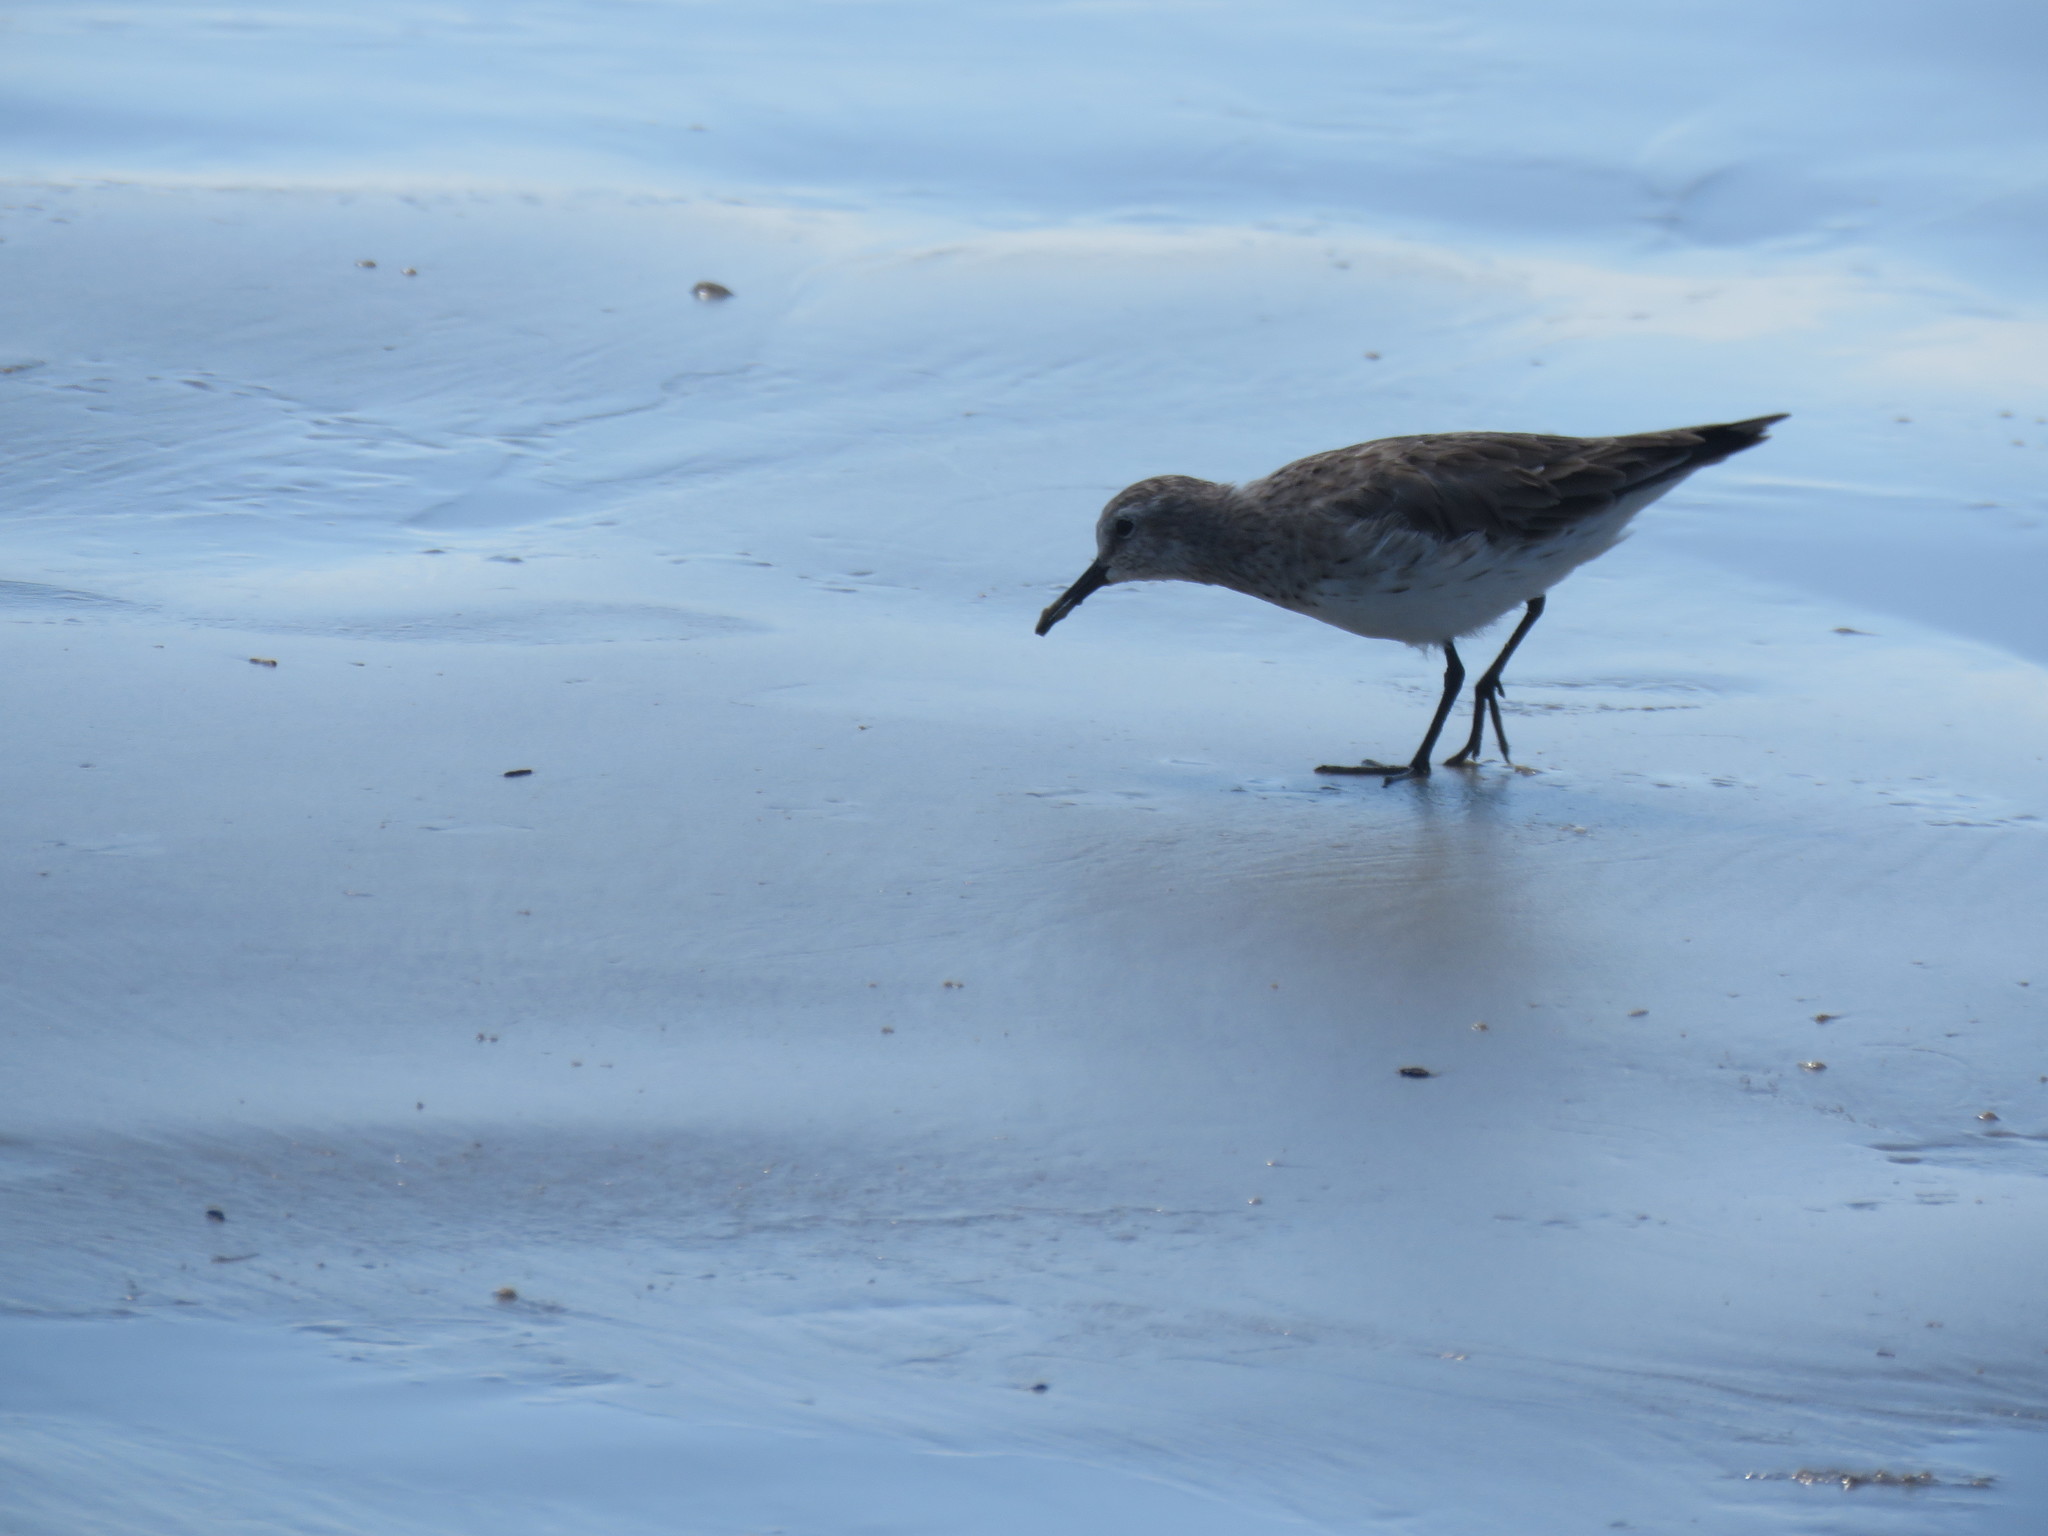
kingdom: Animalia
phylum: Chordata
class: Aves
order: Charadriiformes
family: Scolopacidae
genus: Calidris
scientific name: Calidris fuscicollis
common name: White-rumped sandpiper
